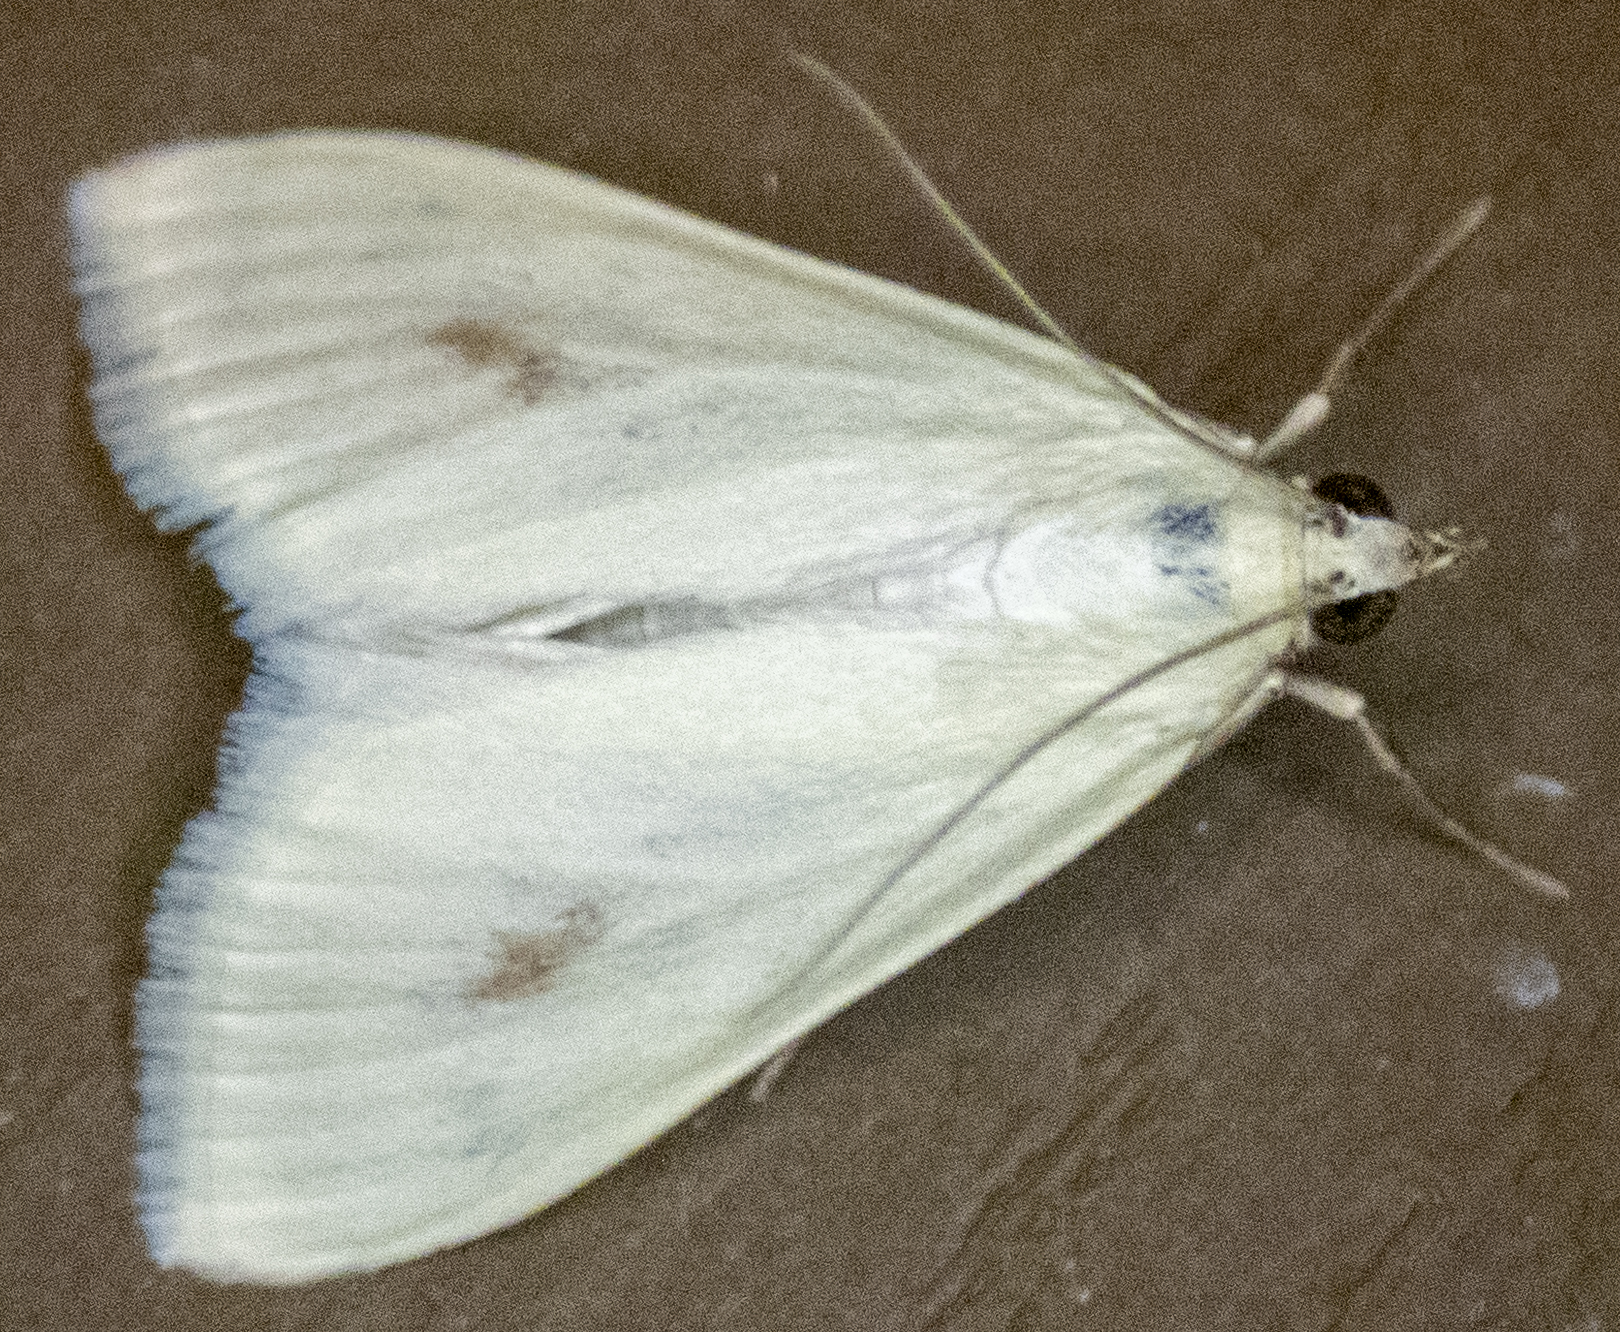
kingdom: Animalia
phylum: Arthropoda
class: Insecta
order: Lepidoptera
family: Crambidae
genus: Sitochroa
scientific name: Sitochroa palealis
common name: Greenish-yellow sitochroa moth
